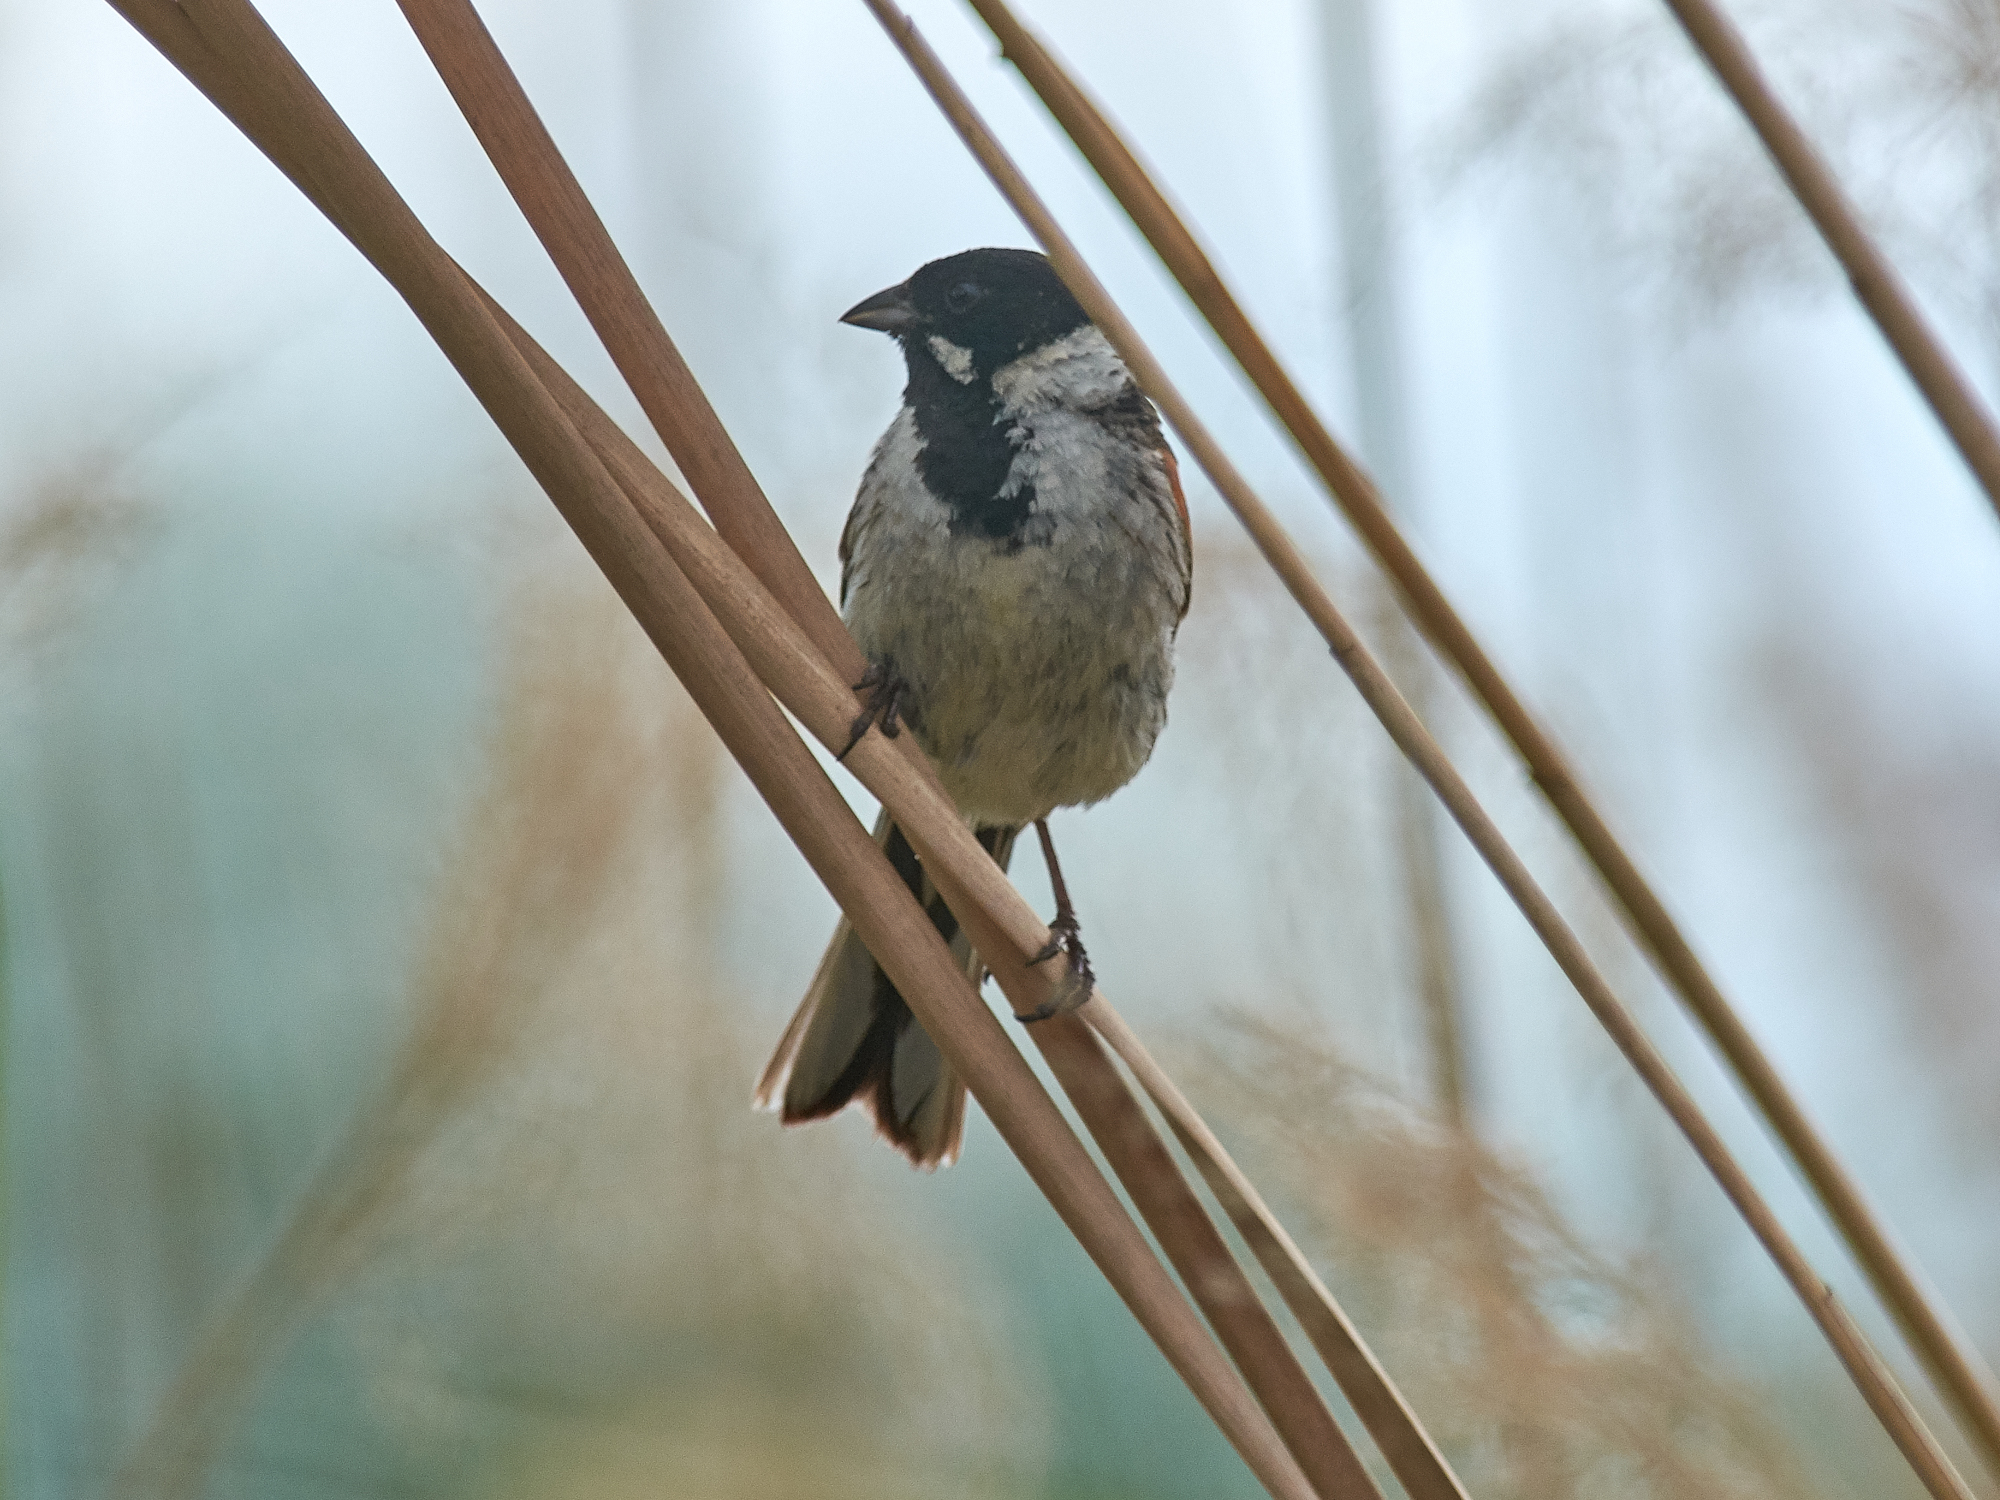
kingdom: Animalia
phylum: Chordata
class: Aves
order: Passeriformes
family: Emberizidae
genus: Emberiza
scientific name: Emberiza schoeniclus
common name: Reed bunting
